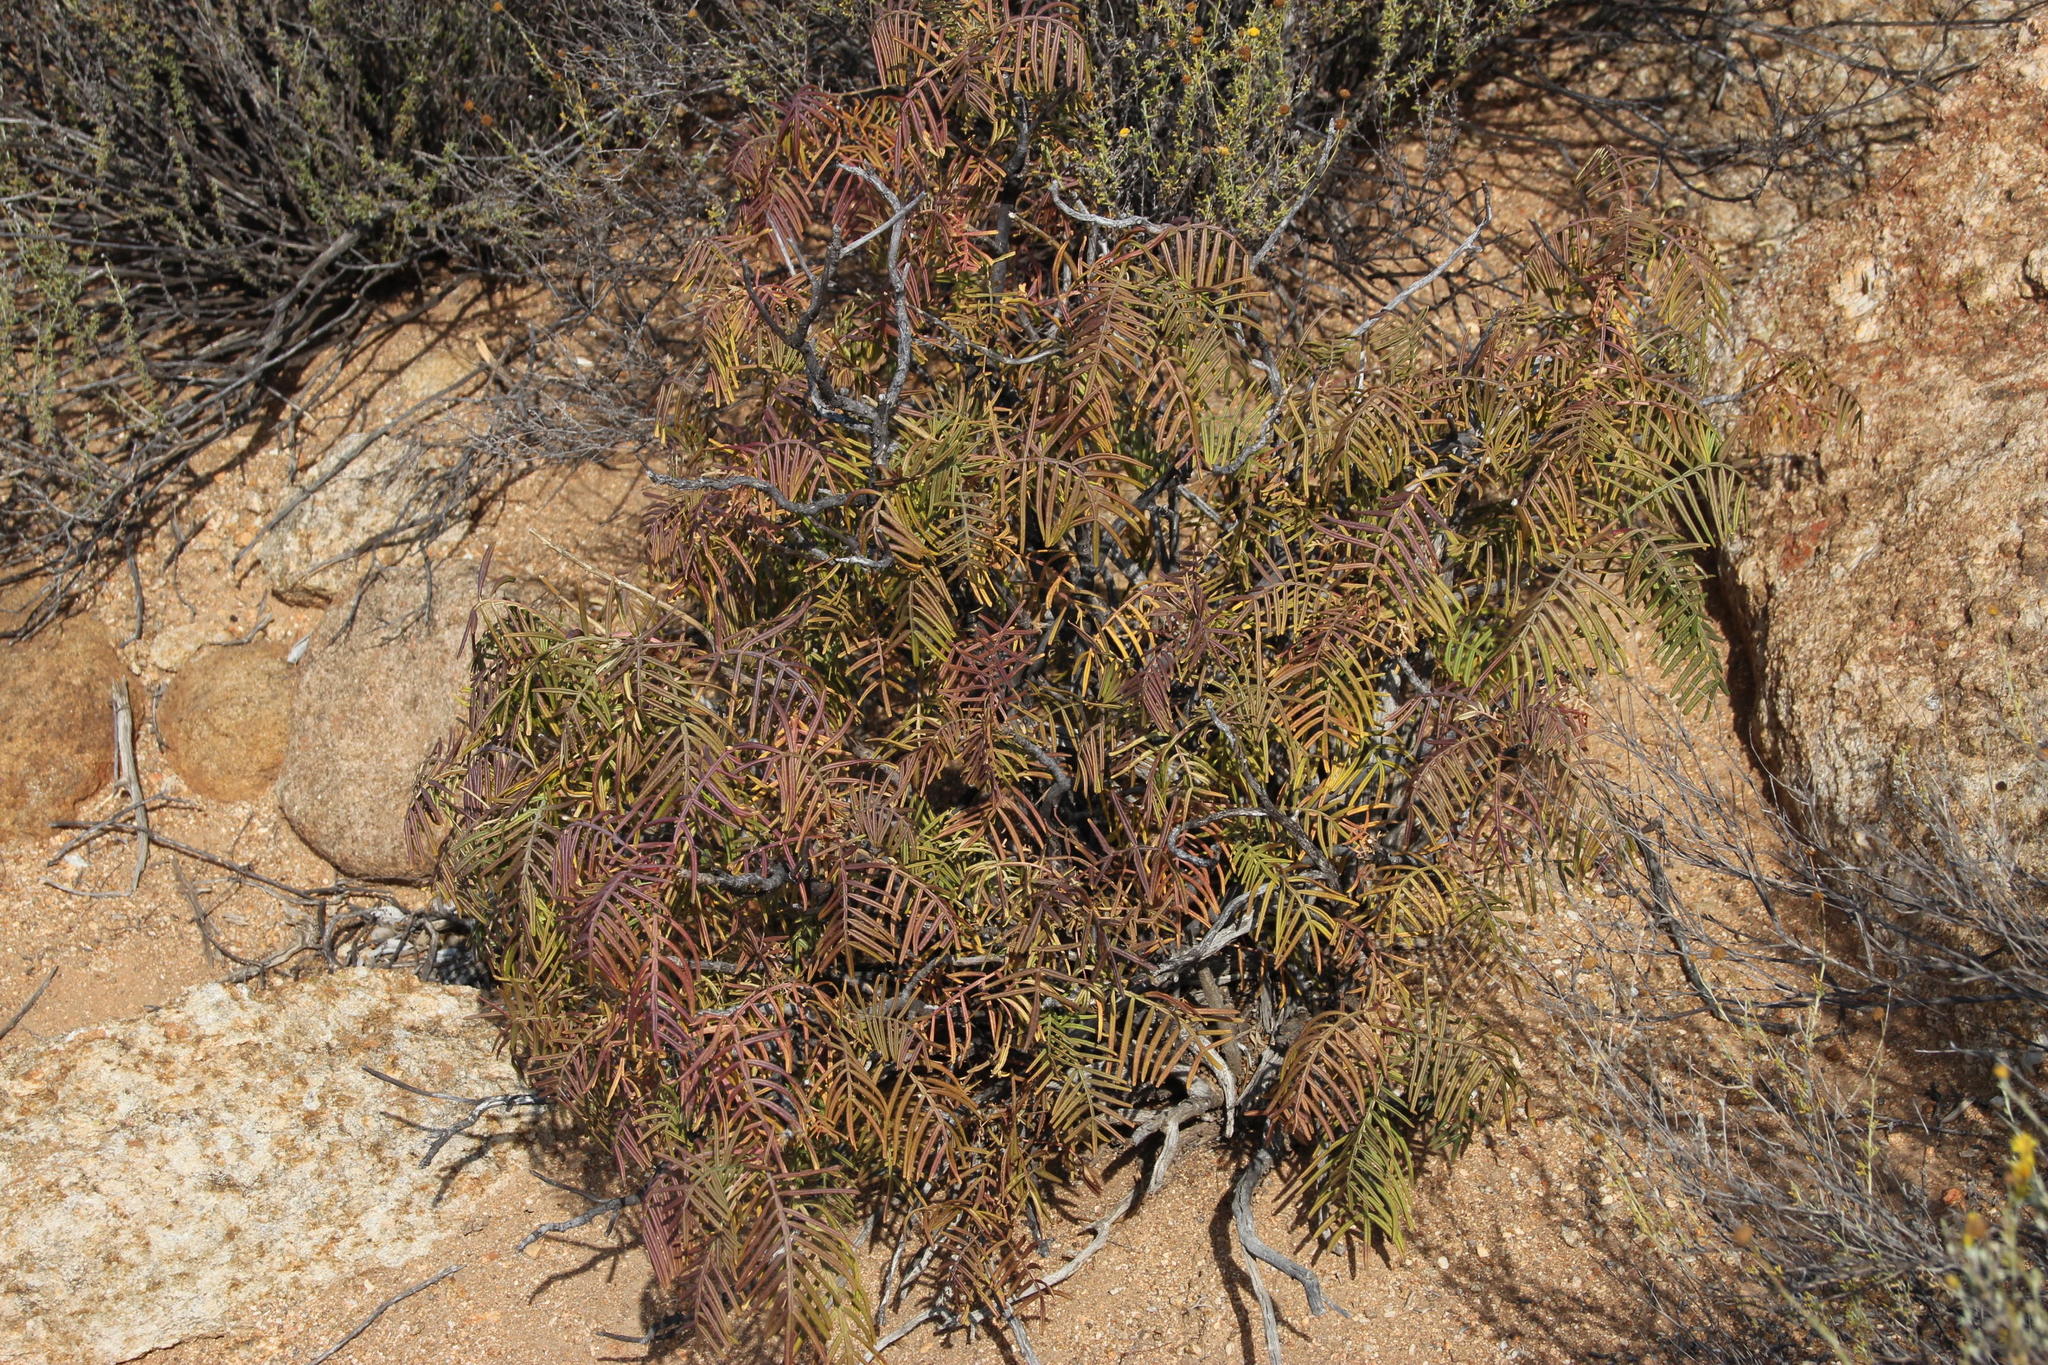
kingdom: Plantae
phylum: Tracheophyta
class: Magnoliopsida
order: Geraniales
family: Melianthaceae
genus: Melianthus
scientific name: Melianthus pectinatus
